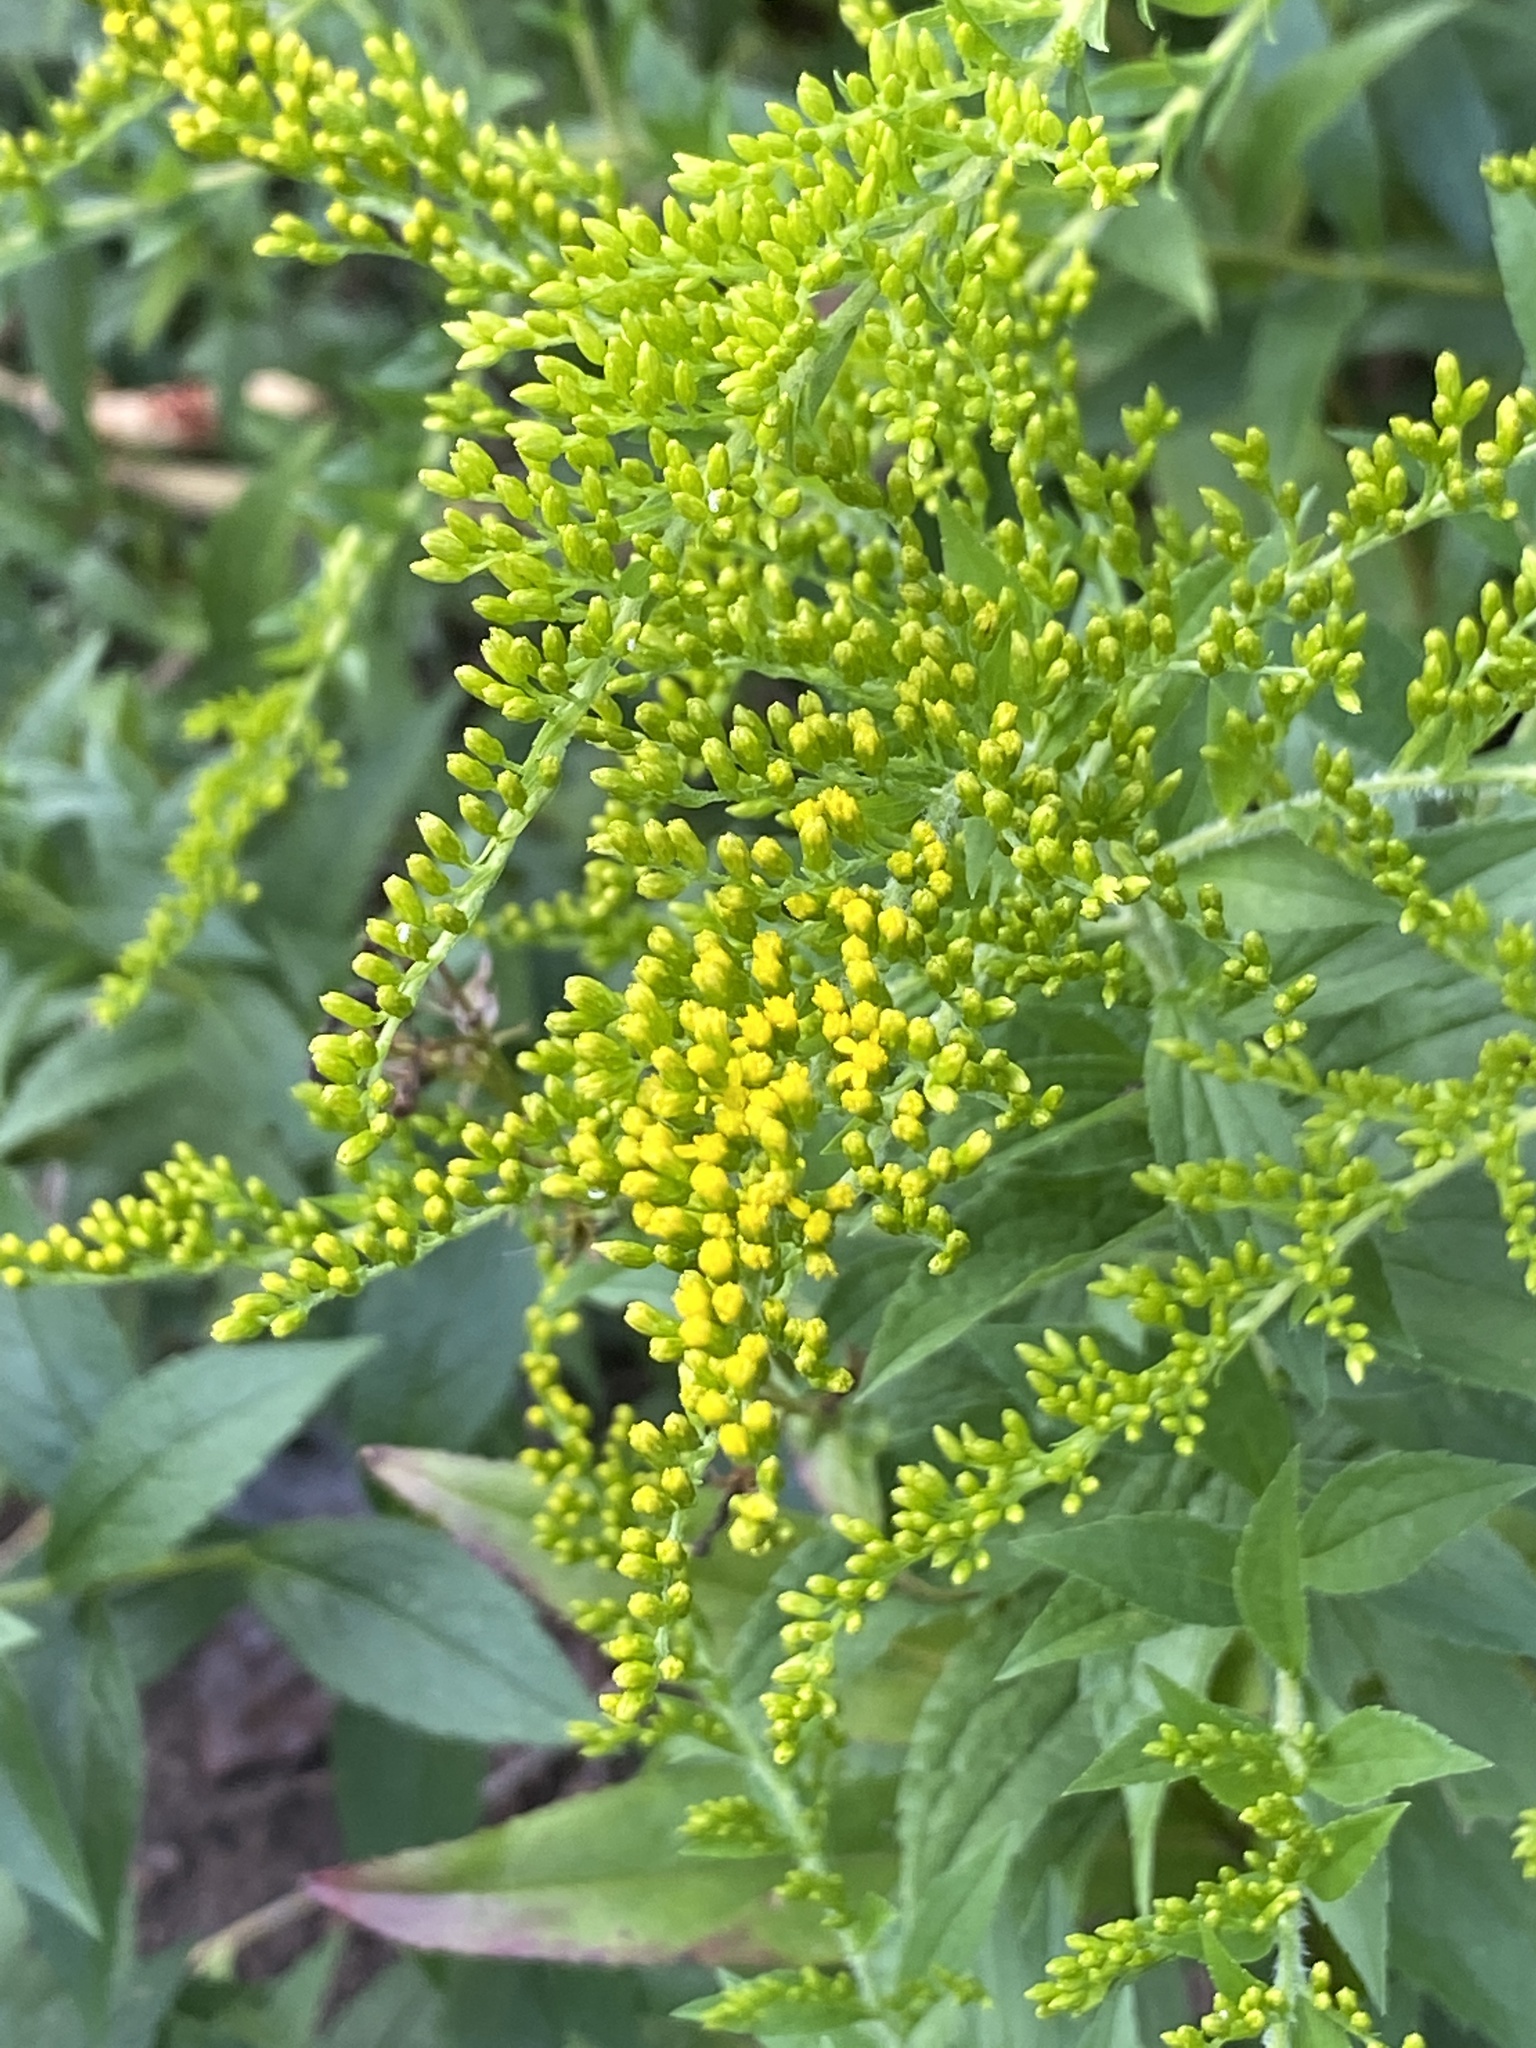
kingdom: Plantae
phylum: Tracheophyta
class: Magnoliopsida
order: Asterales
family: Asteraceae
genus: Solidago
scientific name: Solidago rugosa
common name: Rough-stemmed goldenrod
